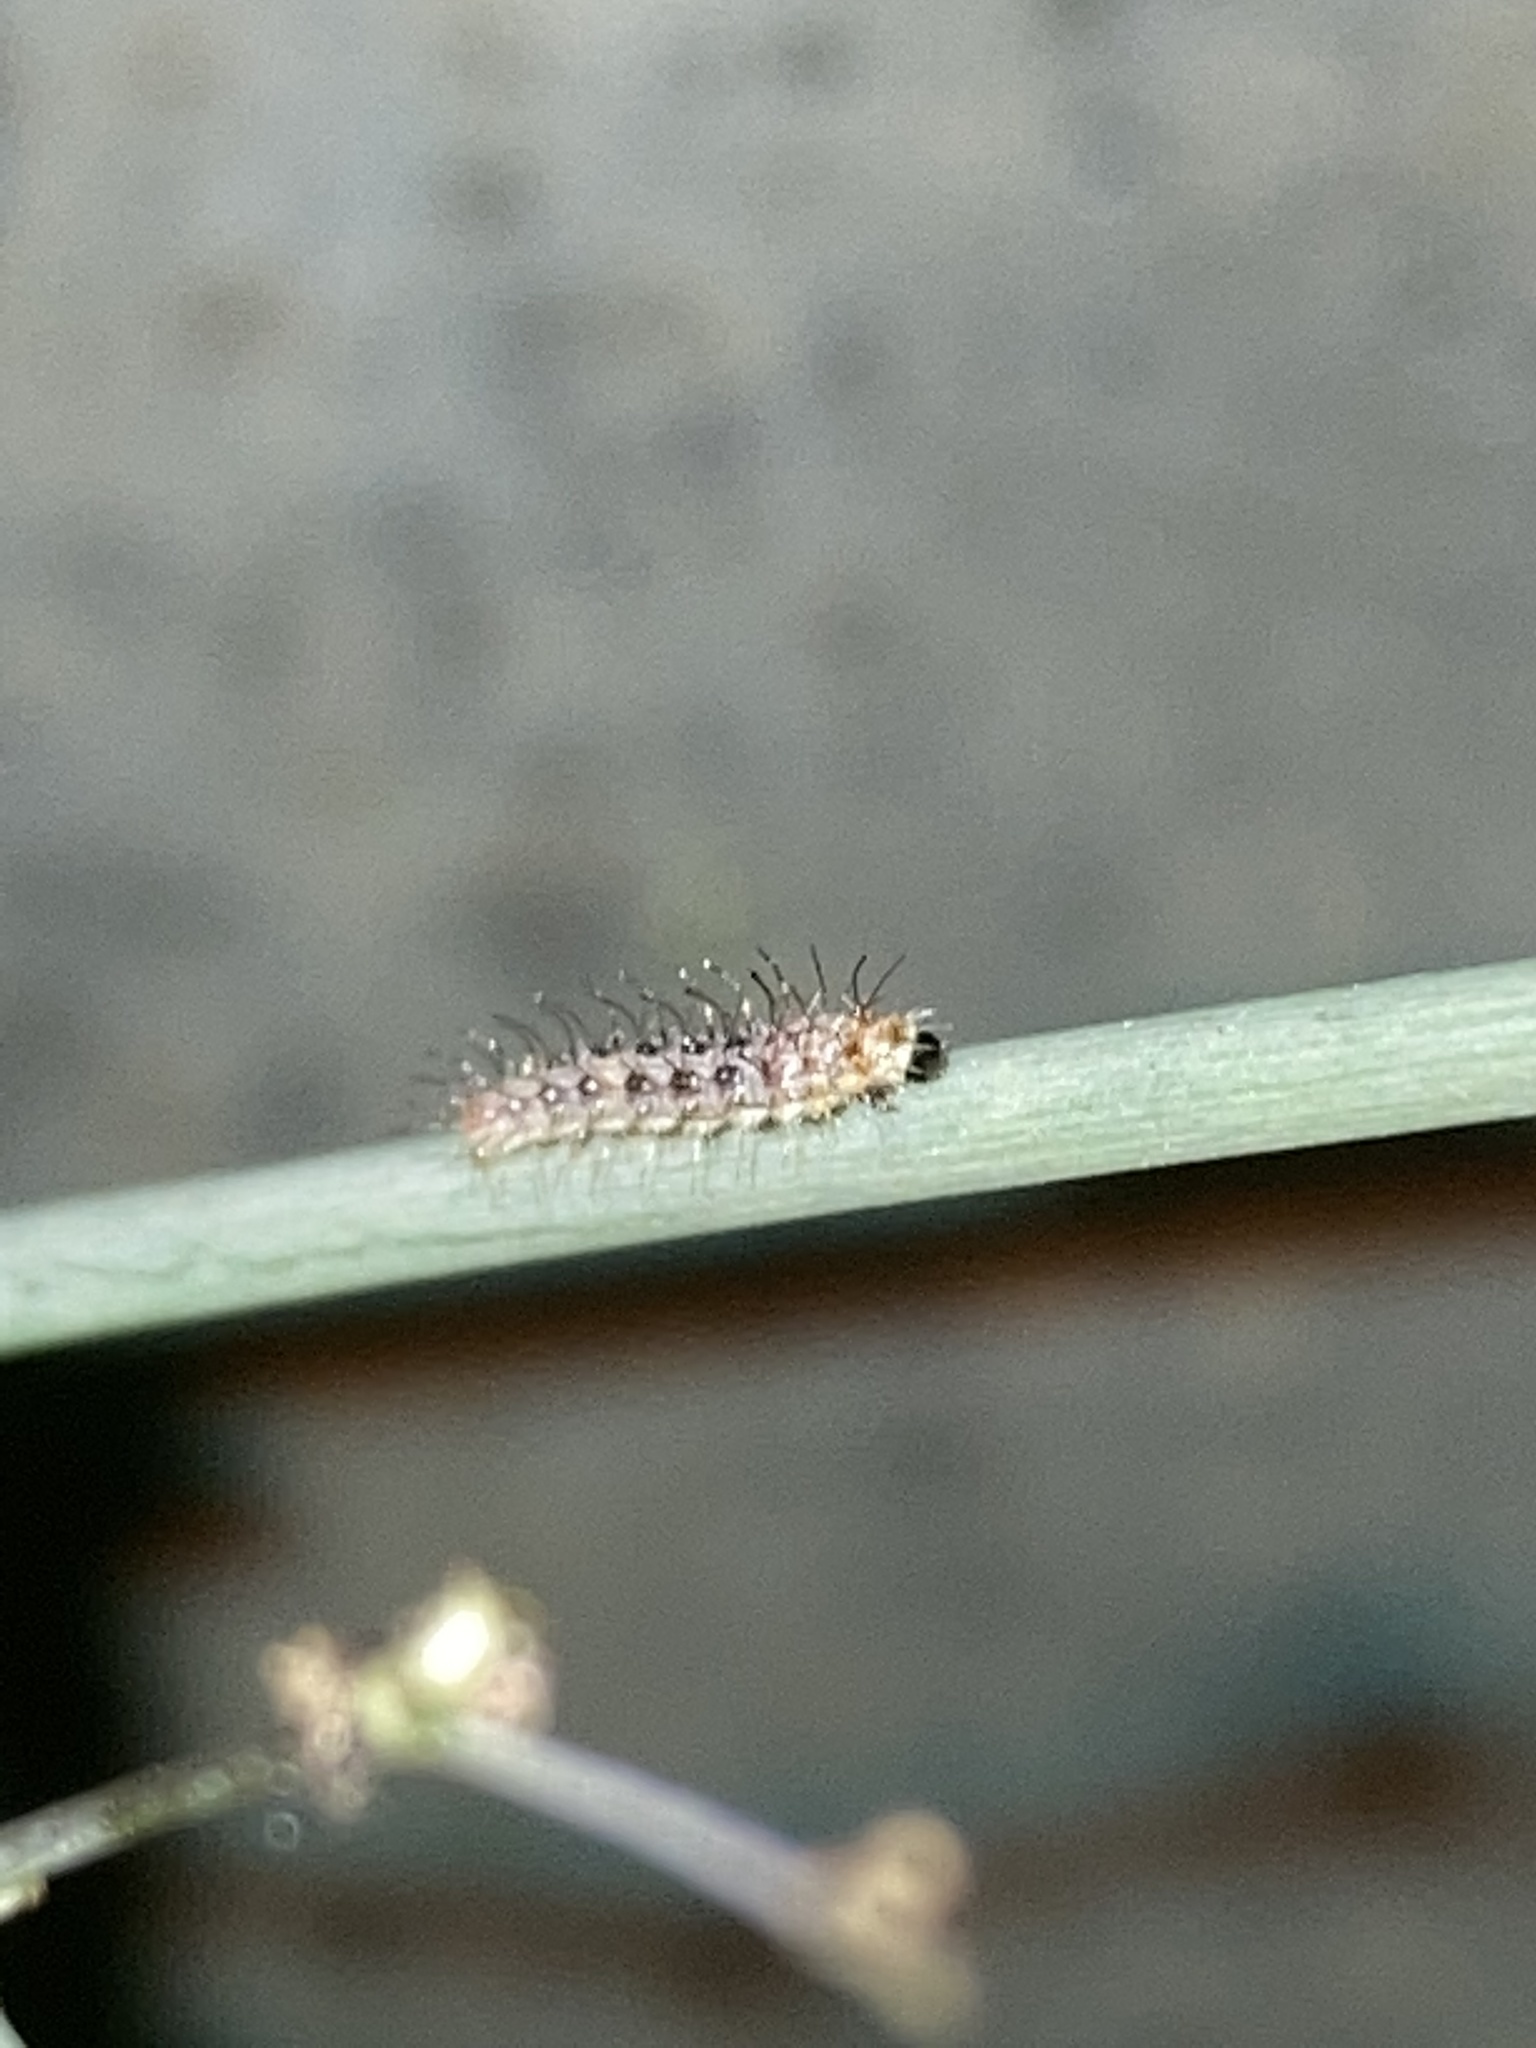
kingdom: Animalia
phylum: Arthropoda
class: Insecta
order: Lepidoptera
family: Pterophoridae
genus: Megalorhipida
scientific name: Megalorhipida leucodactylus
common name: Plume moth
